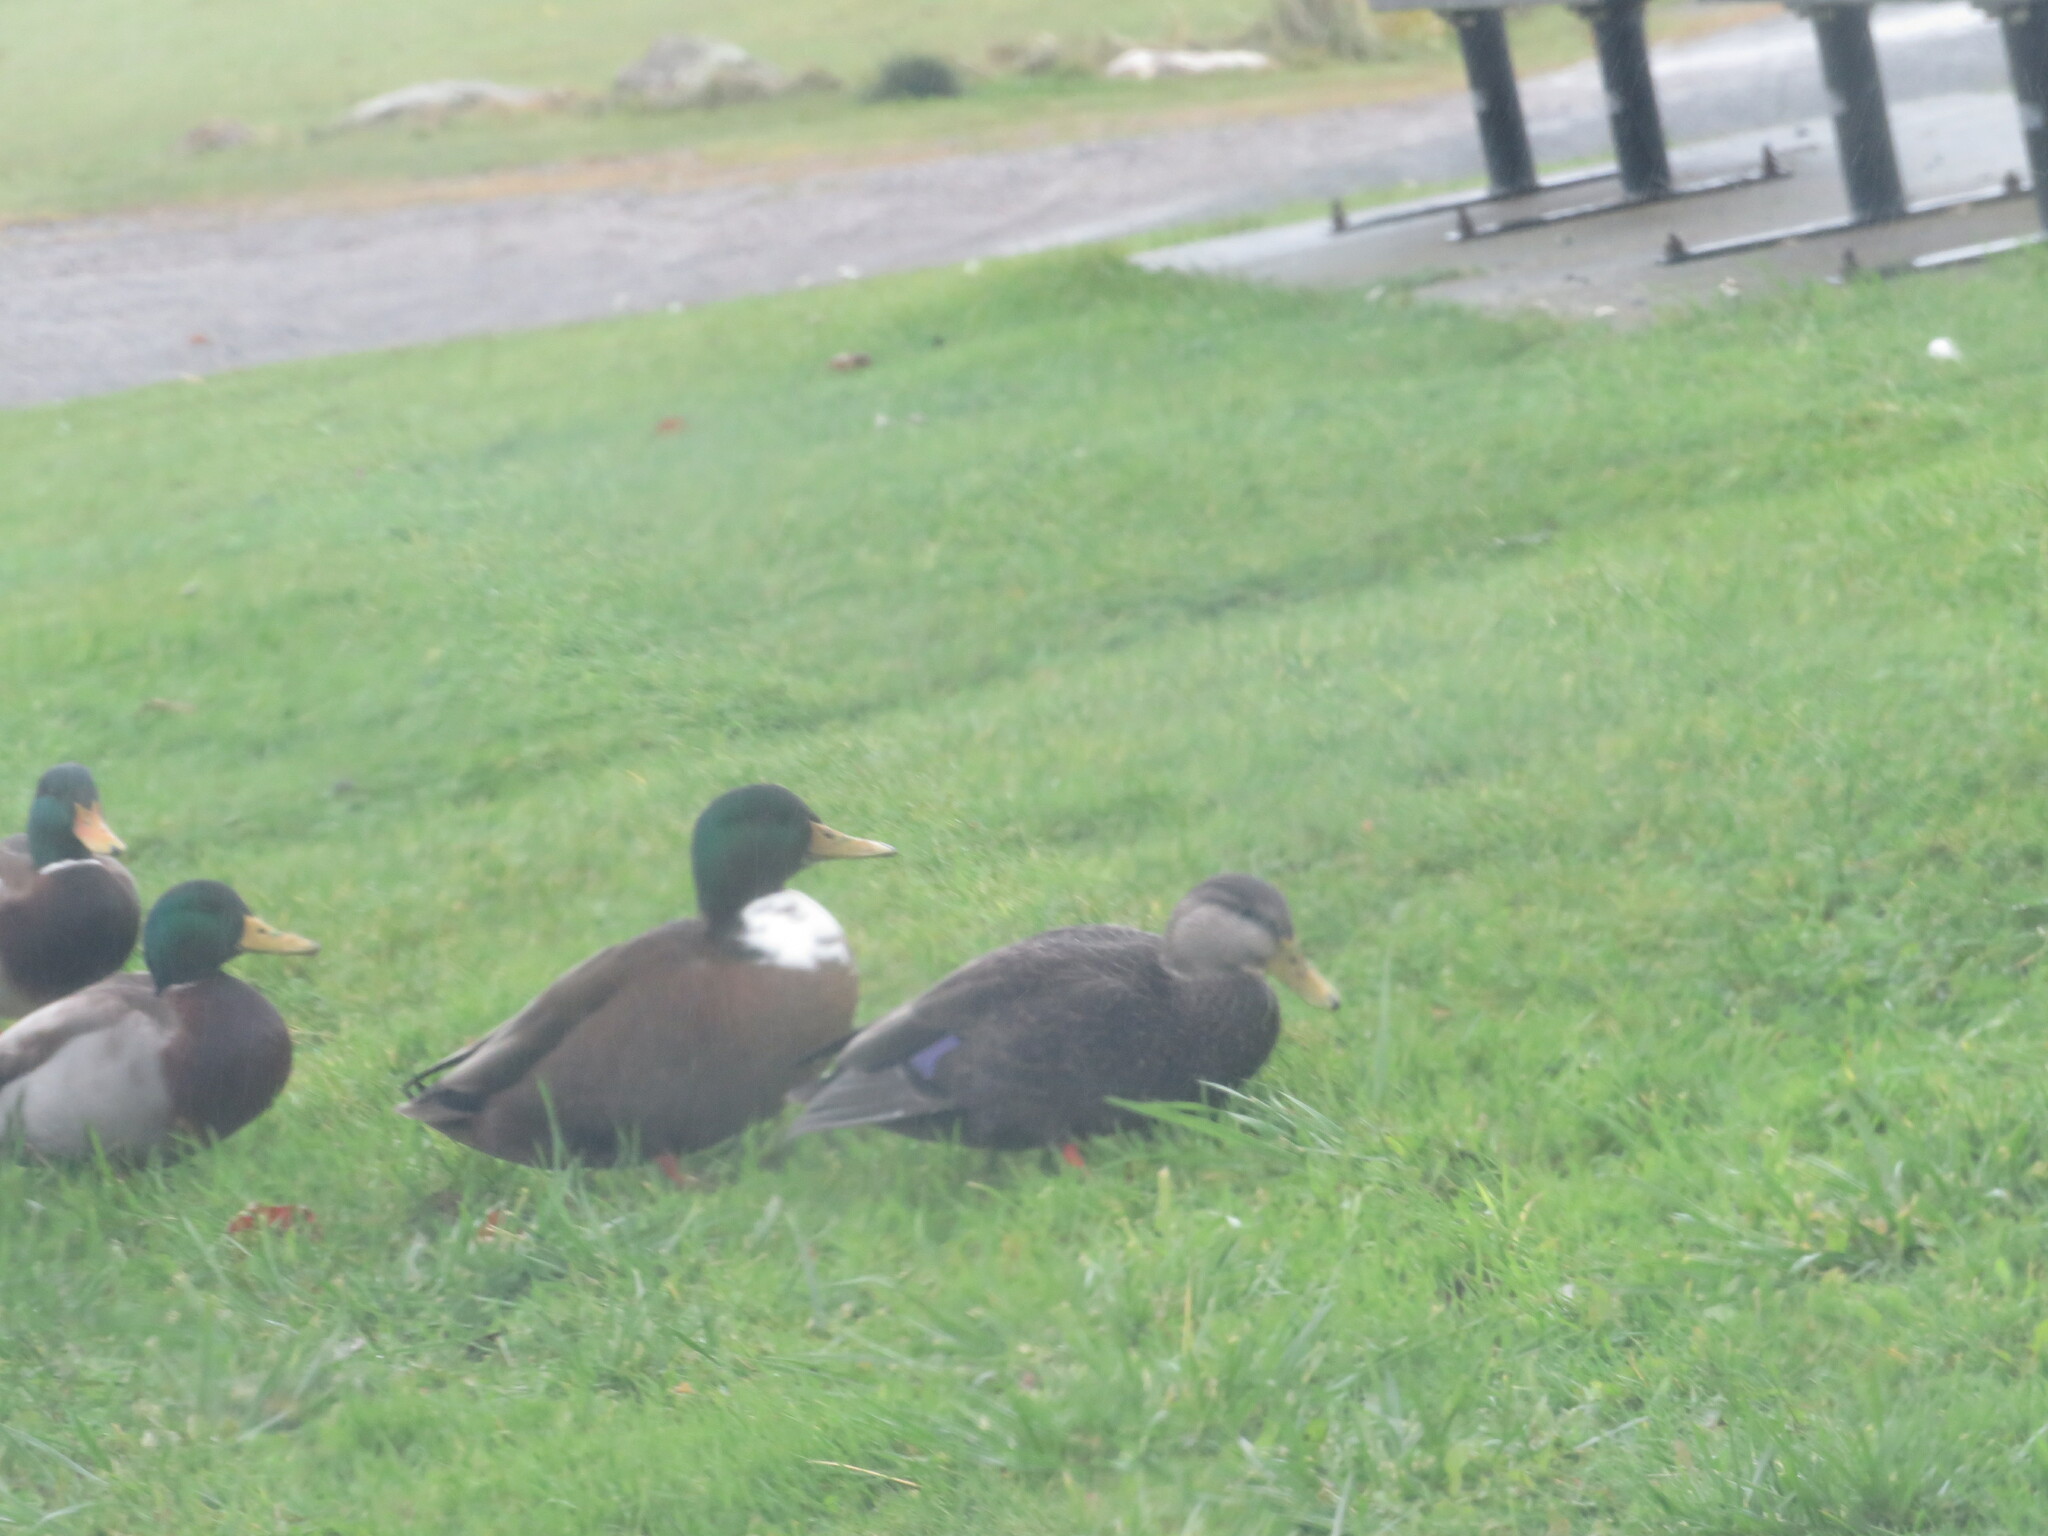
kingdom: Animalia
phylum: Chordata
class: Aves
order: Anseriformes
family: Anatidae
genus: Anas
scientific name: Anas platyrhynchos
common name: Mallard
